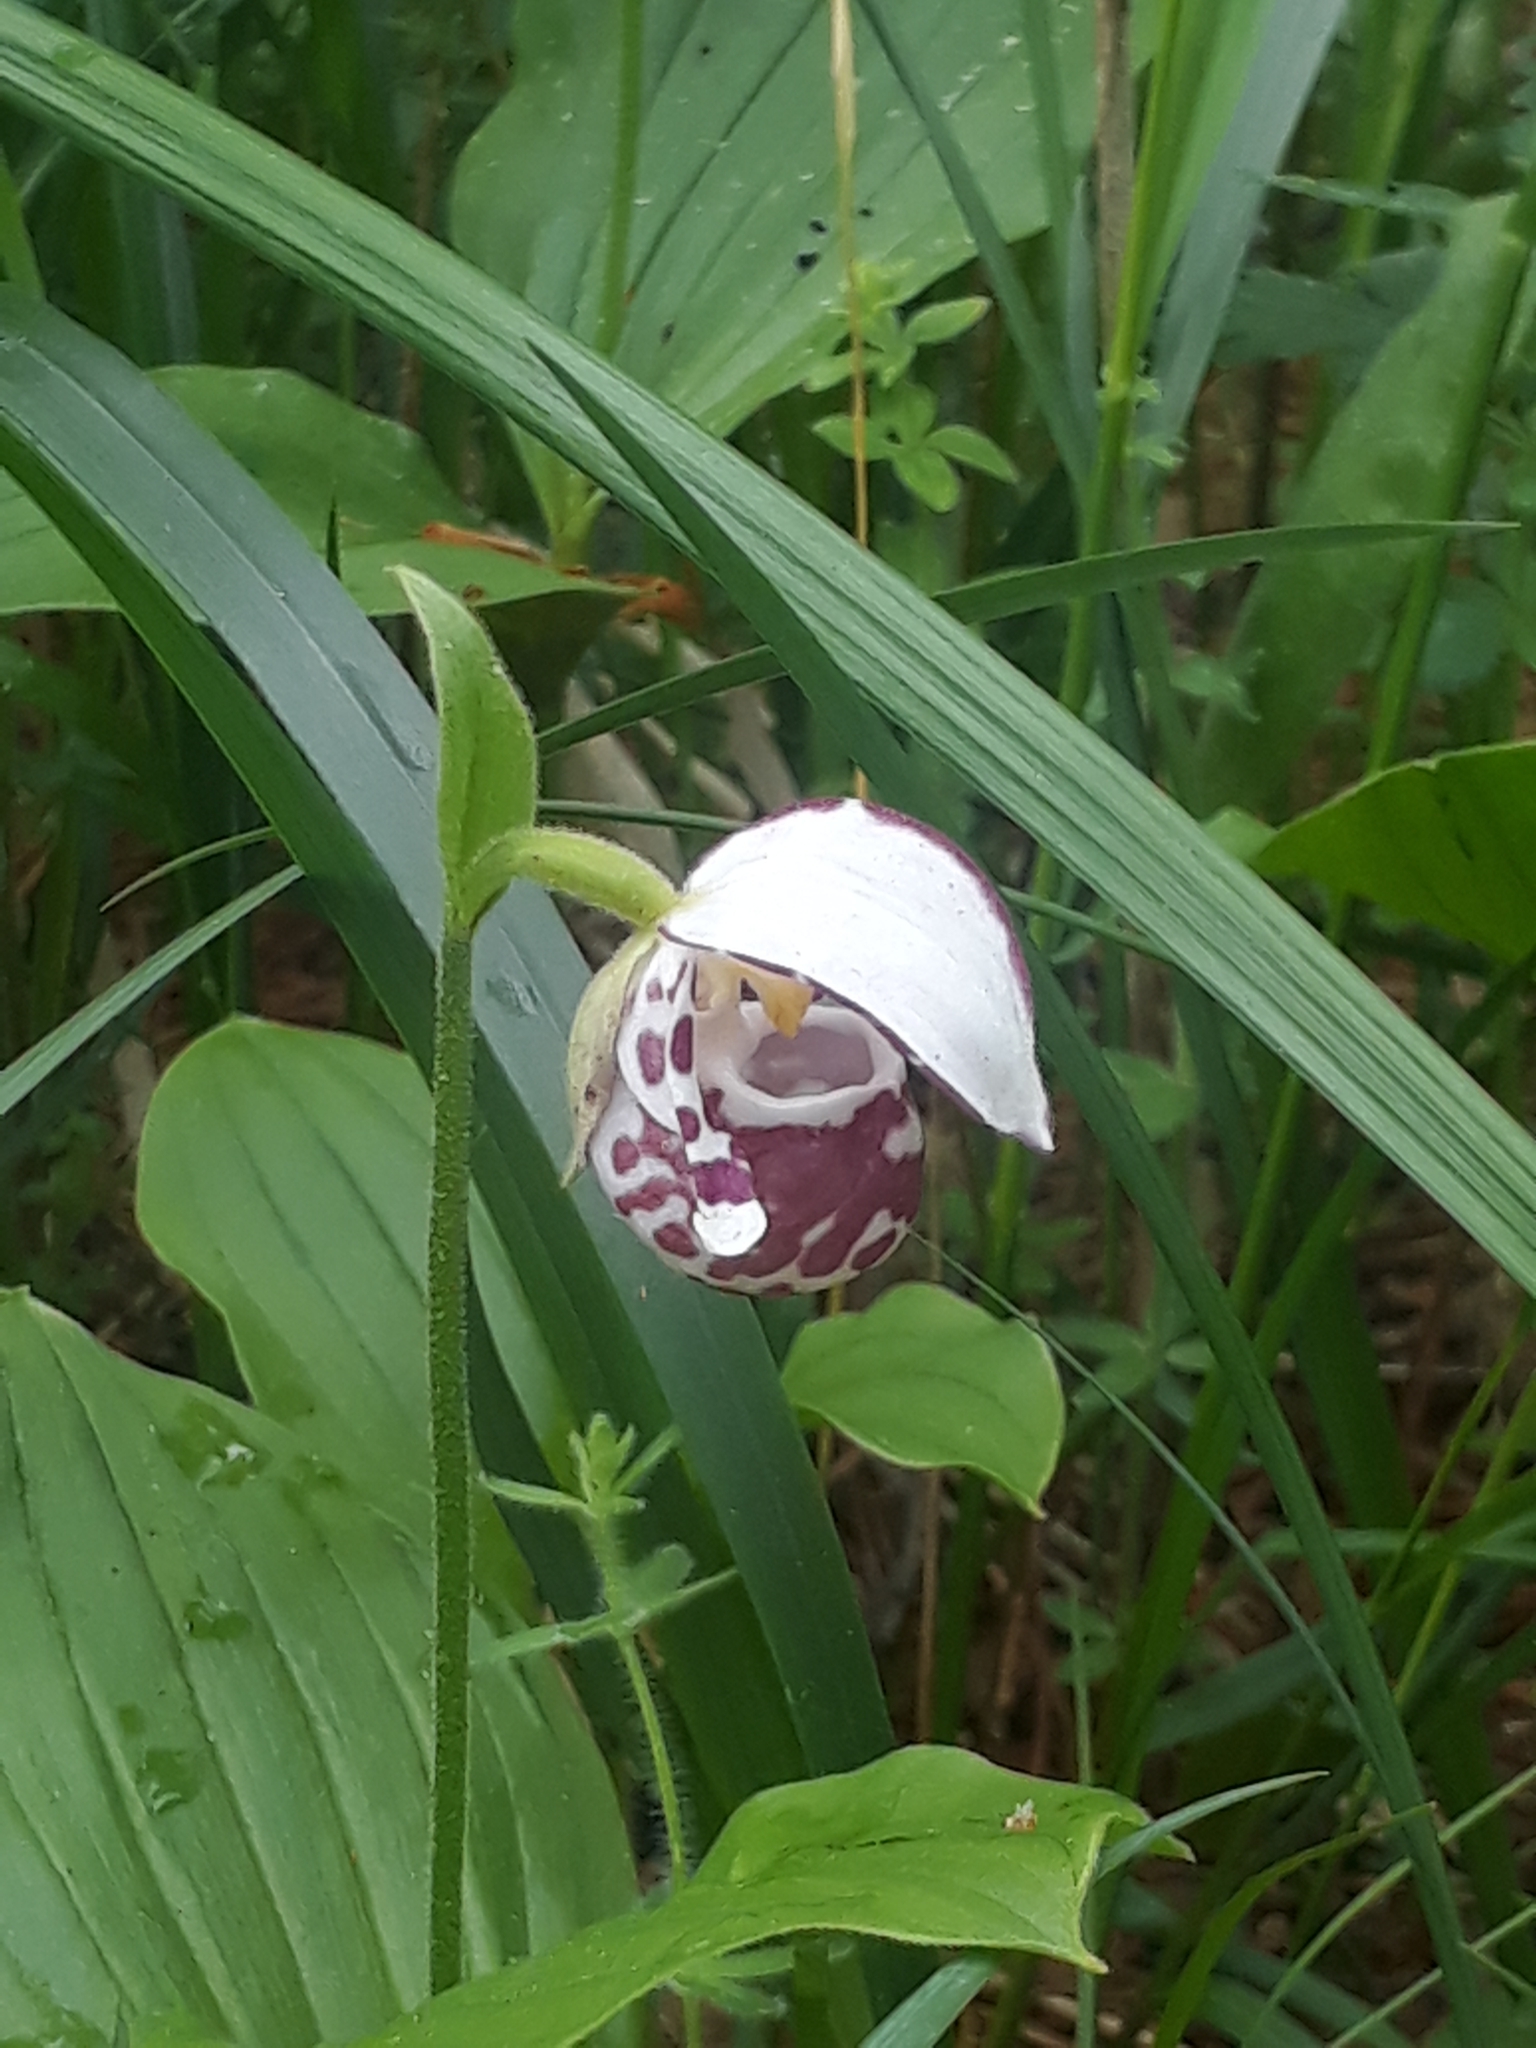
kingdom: Plantae
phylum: Tracheophyta
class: Liliopsida
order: Asparagales
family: Orchidaceae
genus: Cypripedium
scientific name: Cypripedium guttatum
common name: Pink lady slipper
